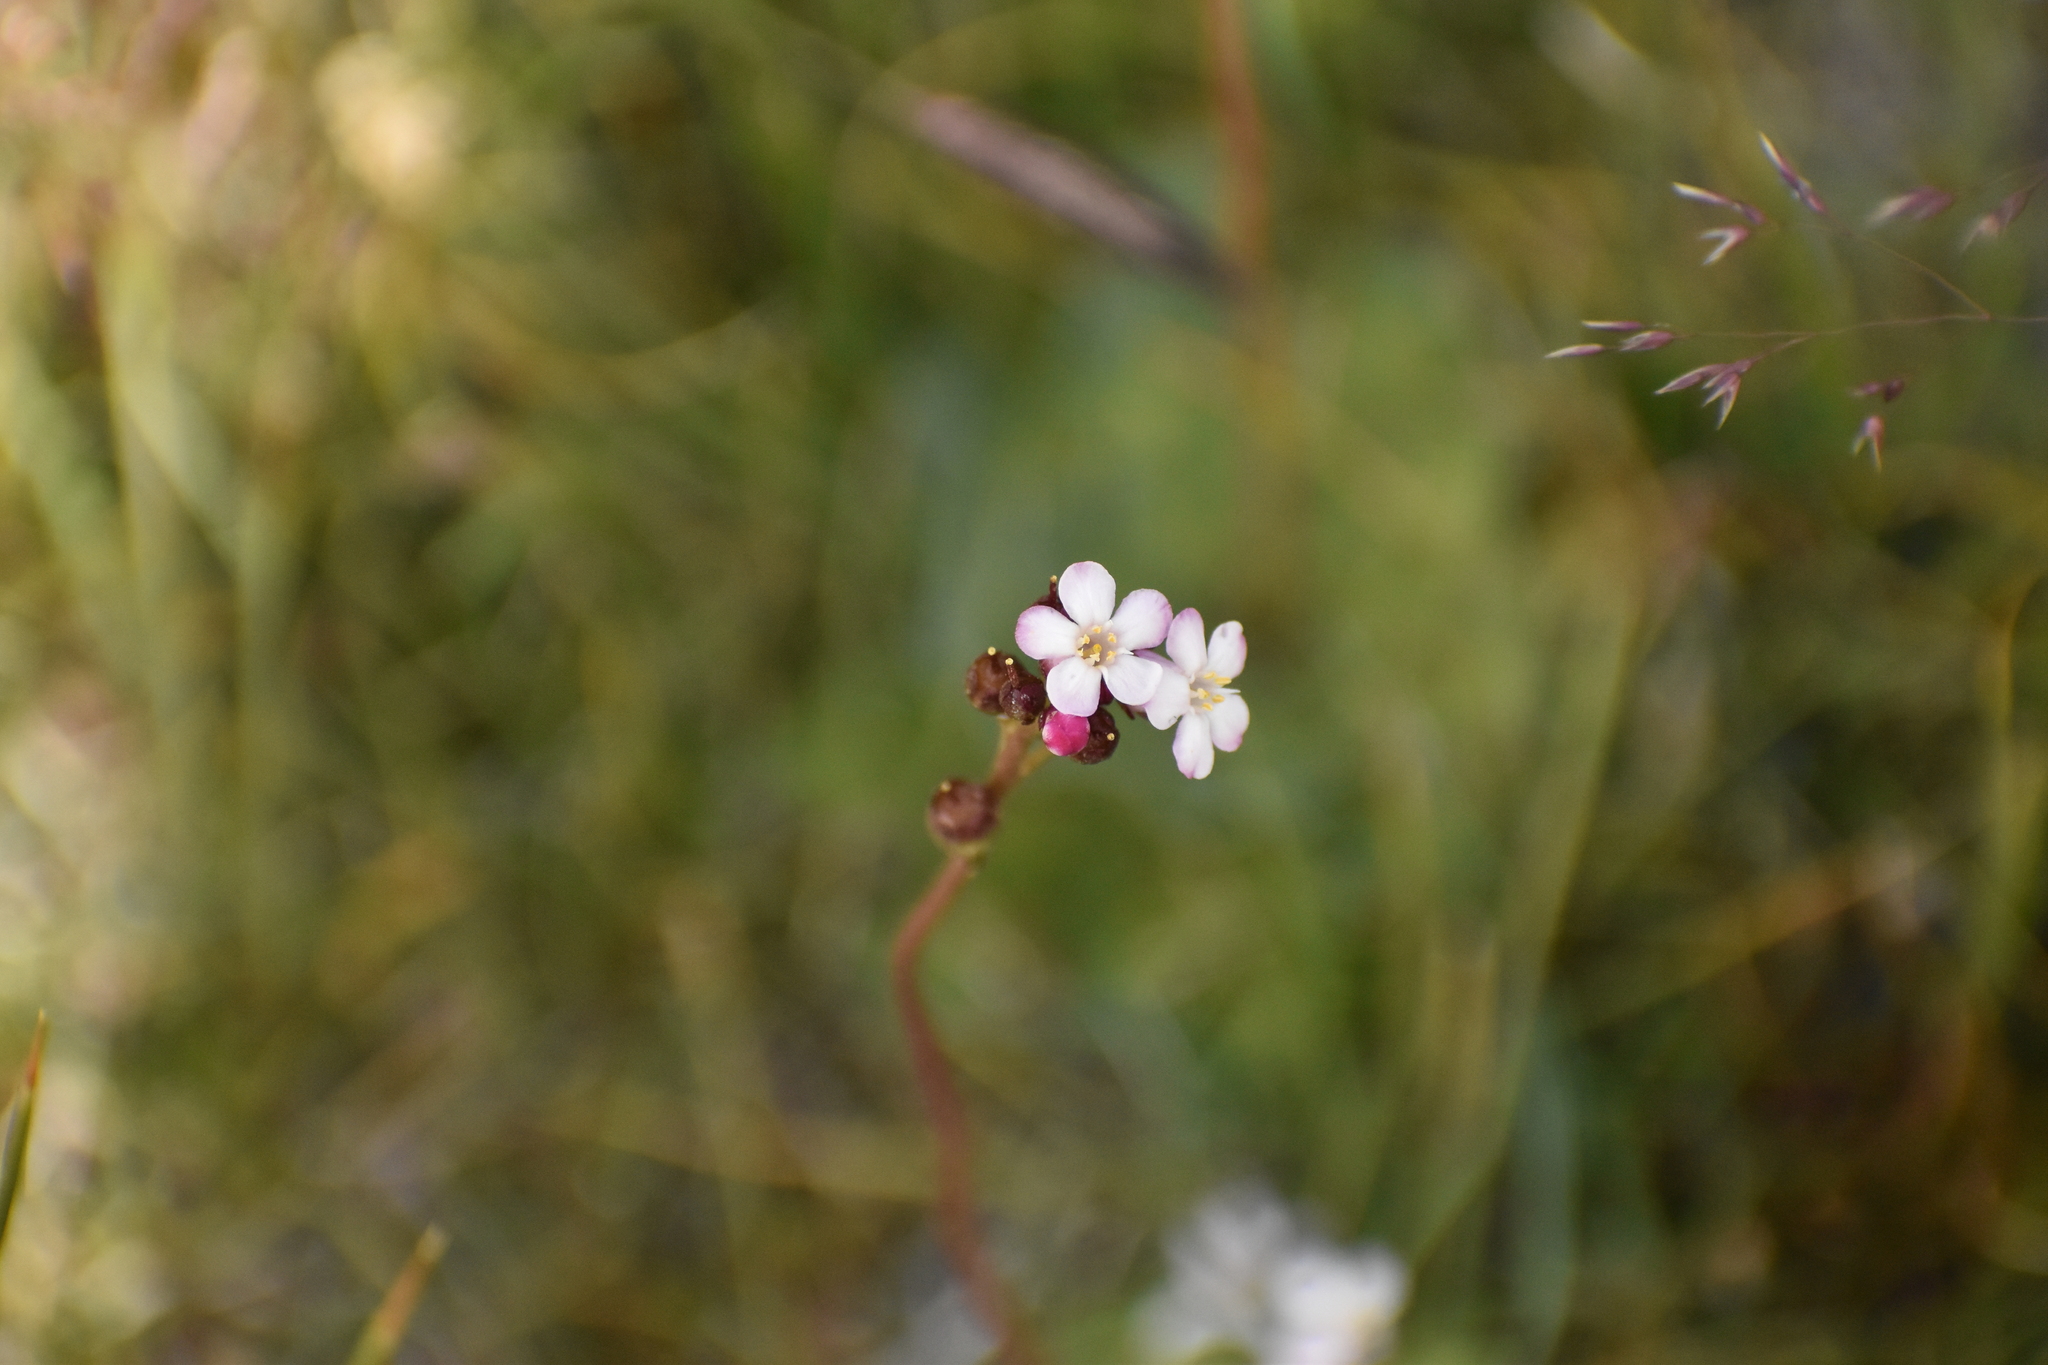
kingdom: Plantae
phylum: Tracheophyta
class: Magnoliopsida
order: Ericales
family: Primulaceae
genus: Samolus
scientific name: Samolus spathulatus
